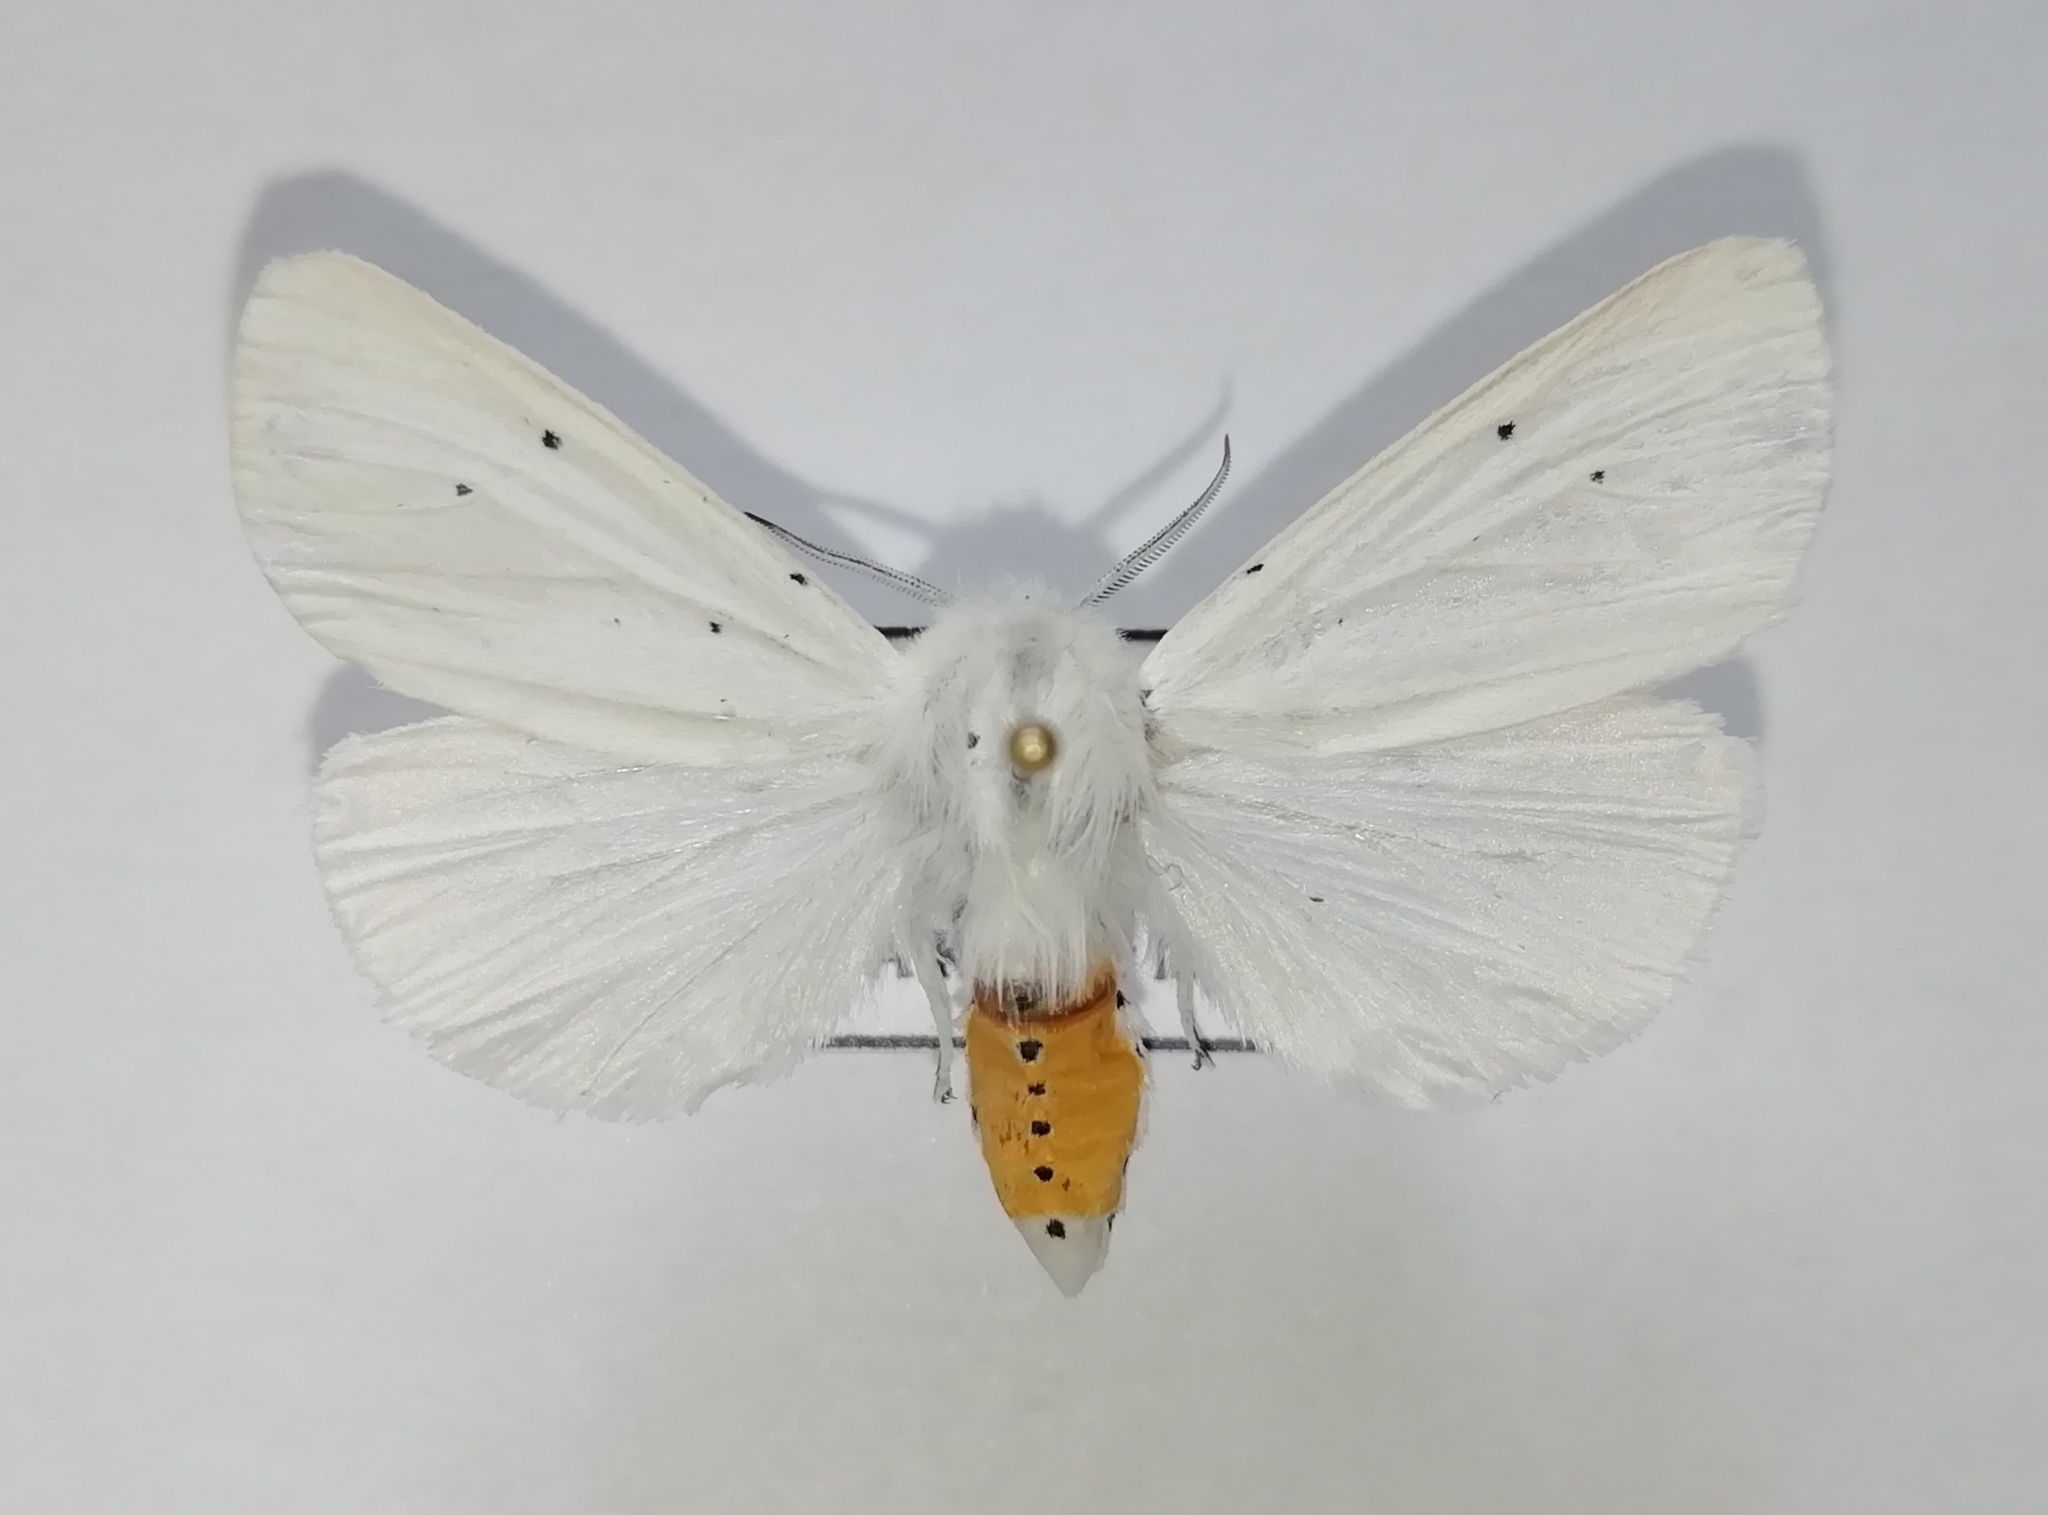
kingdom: Animalia
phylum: Arthropoda
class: Insecta
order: Lepidoptera
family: Erebidae
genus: Spilosoma
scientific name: Spilosoma urticae
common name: Water ermine
